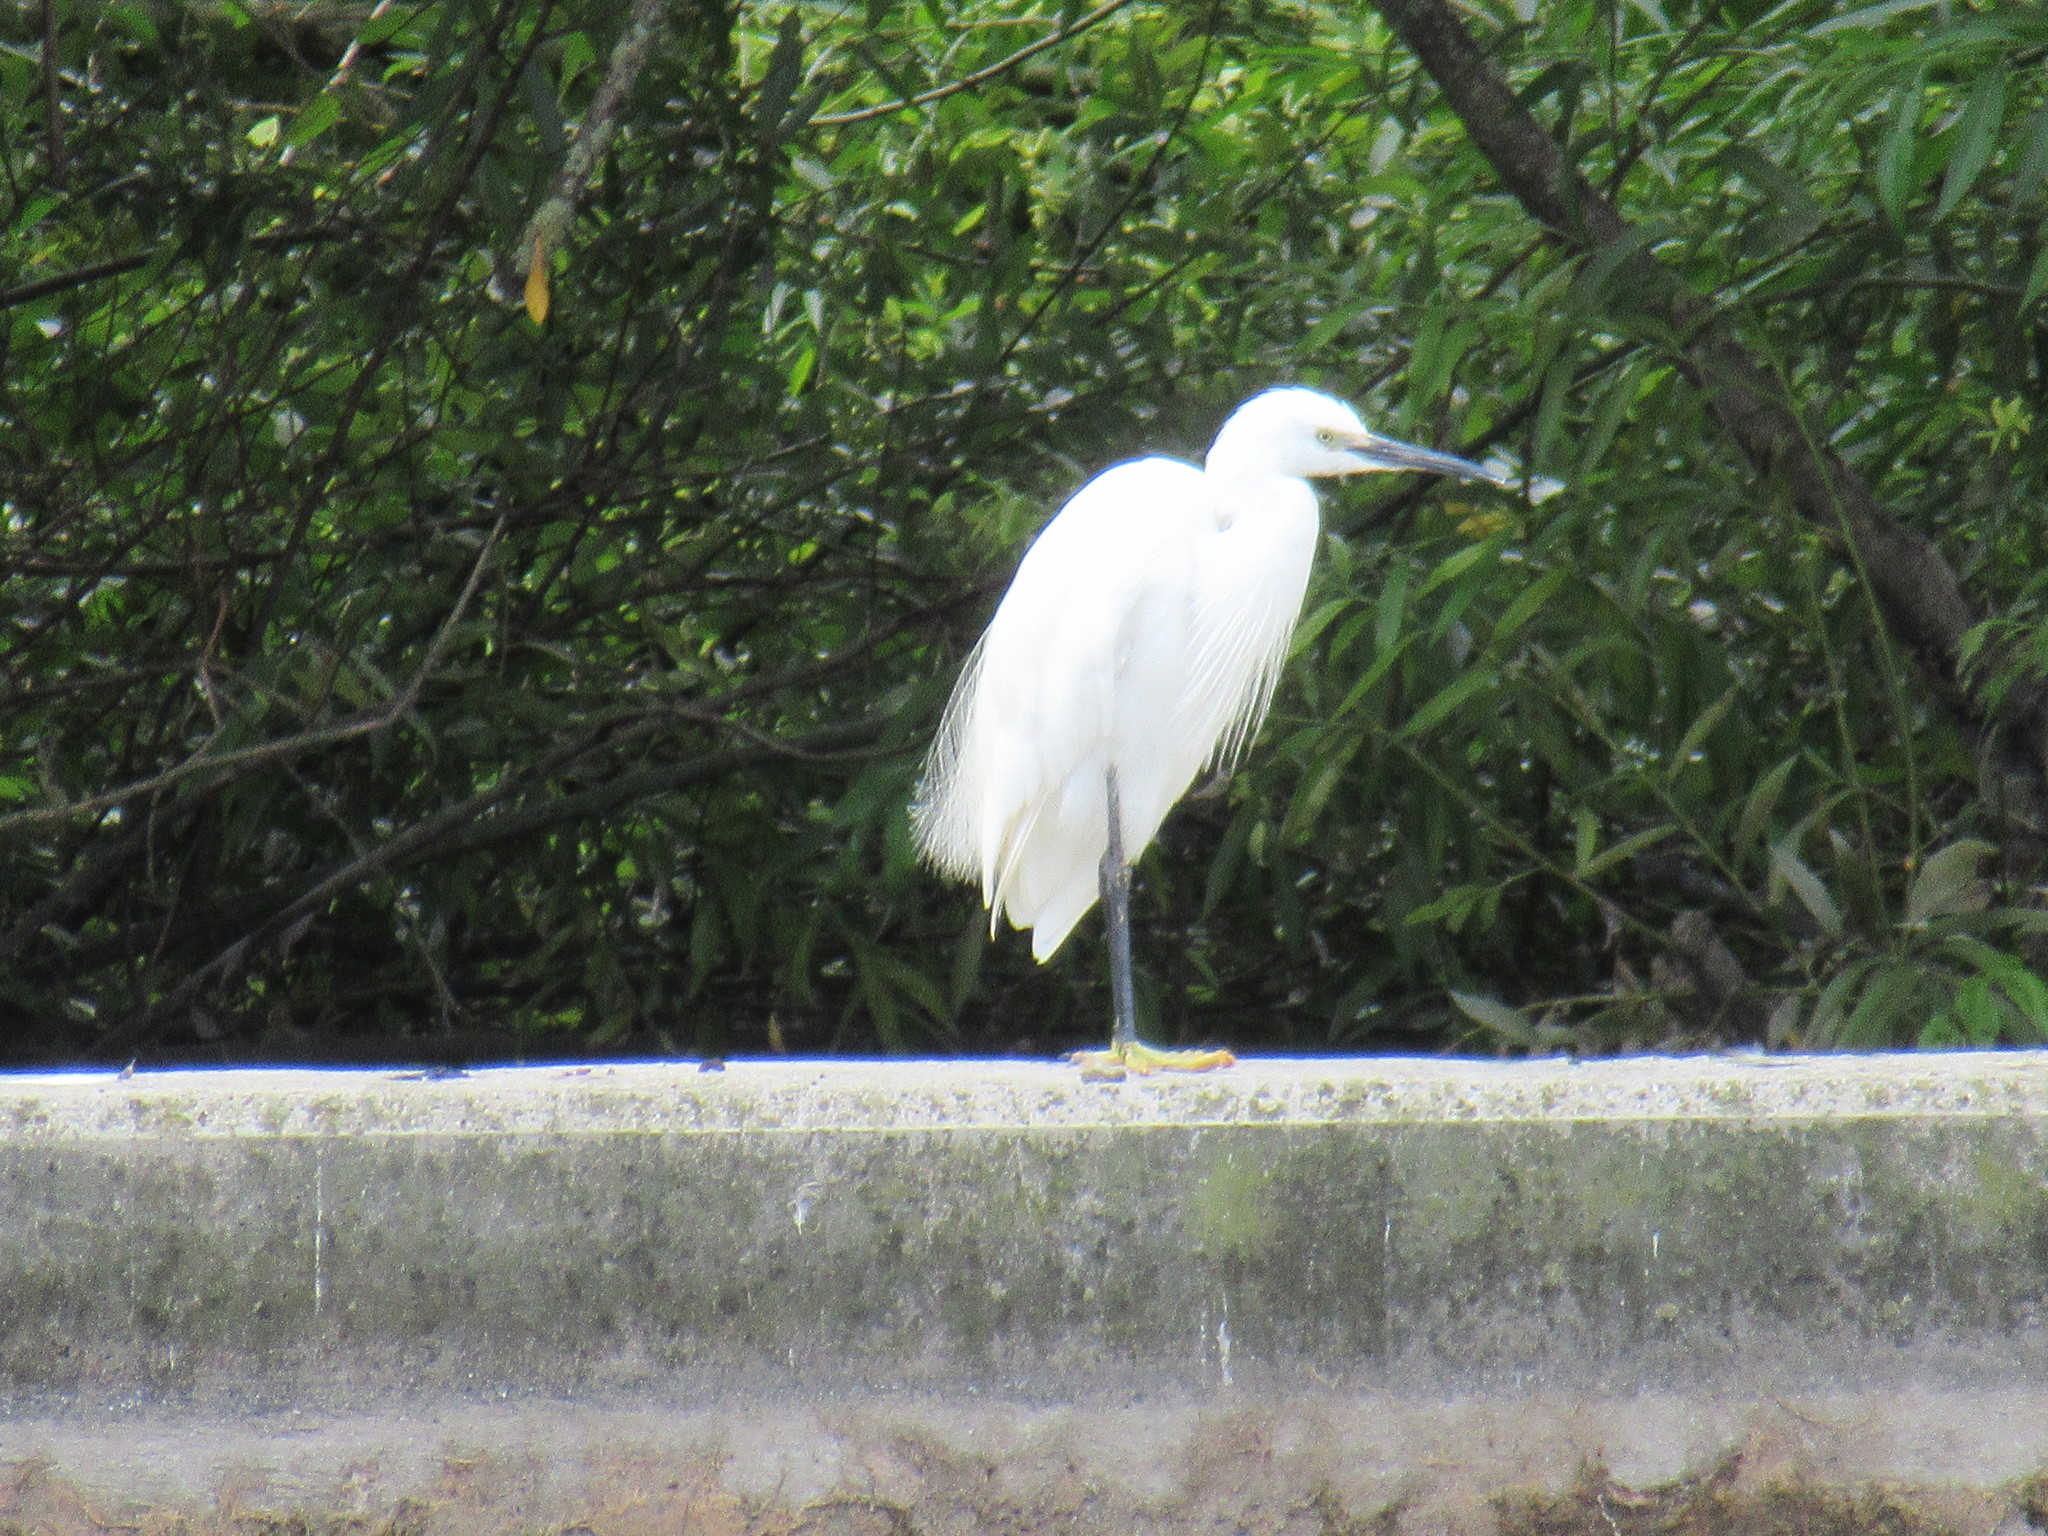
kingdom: Animalia
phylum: Chordata
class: Aves
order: Pelecaniformes
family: Ardeidae
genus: Egretta
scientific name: Egretta garzetta
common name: Little egret
